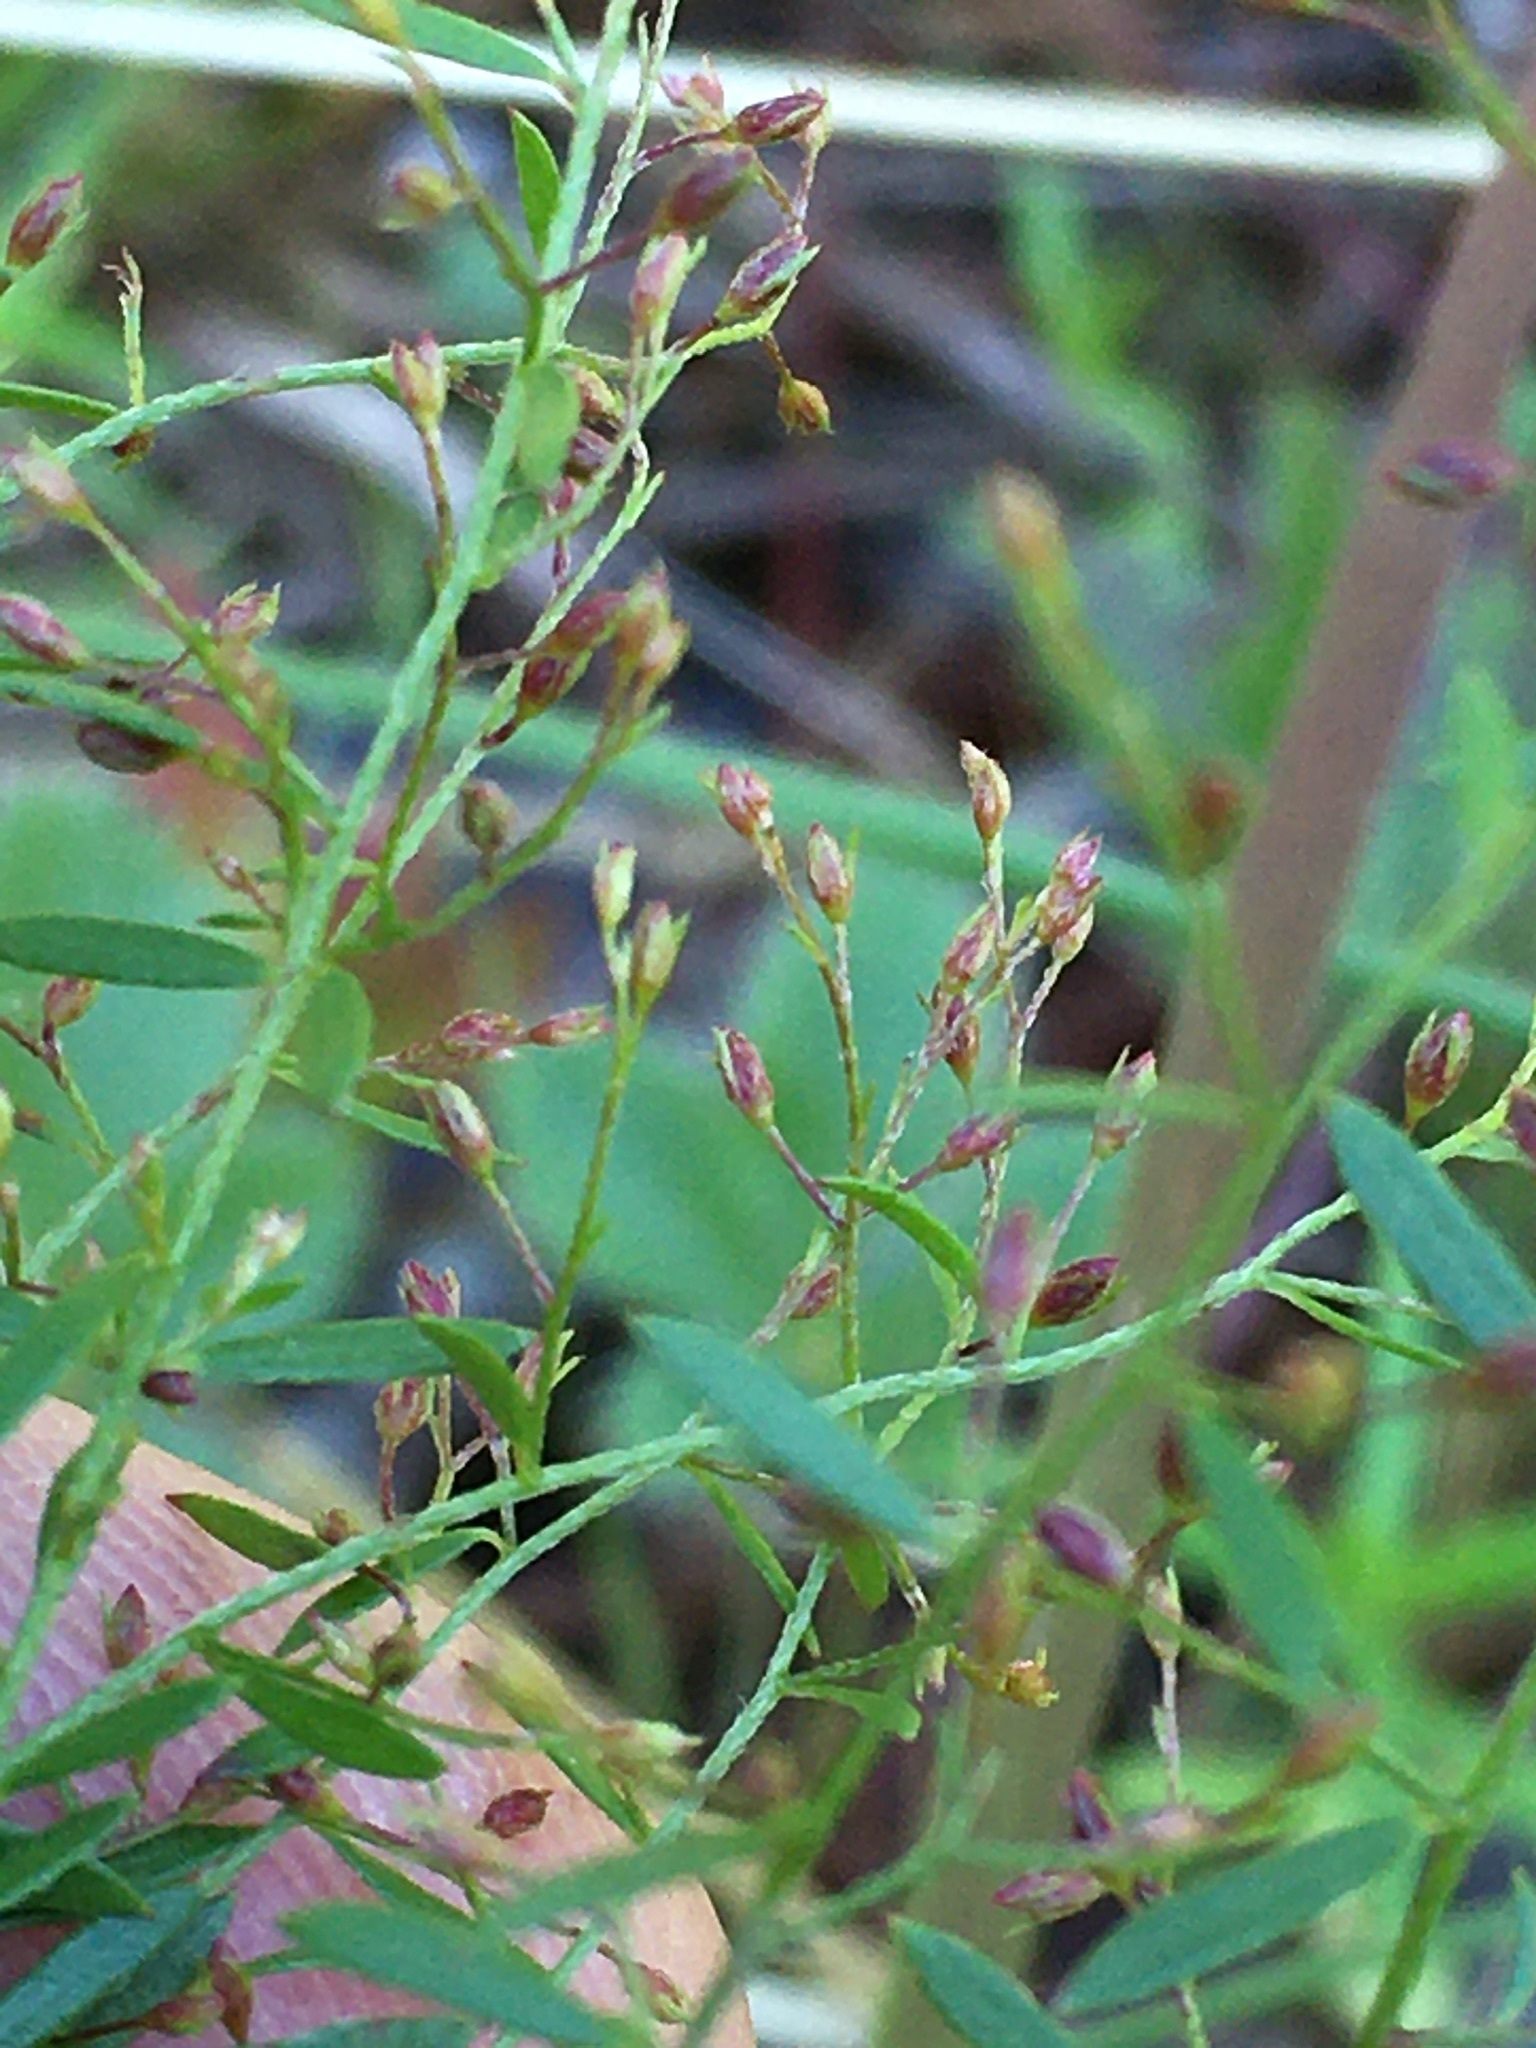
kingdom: Plantae
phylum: Tracheophyta
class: Magnoliopsida
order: Malvales
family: Cistaceae
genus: Lechea
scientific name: Lechea racemulosa
